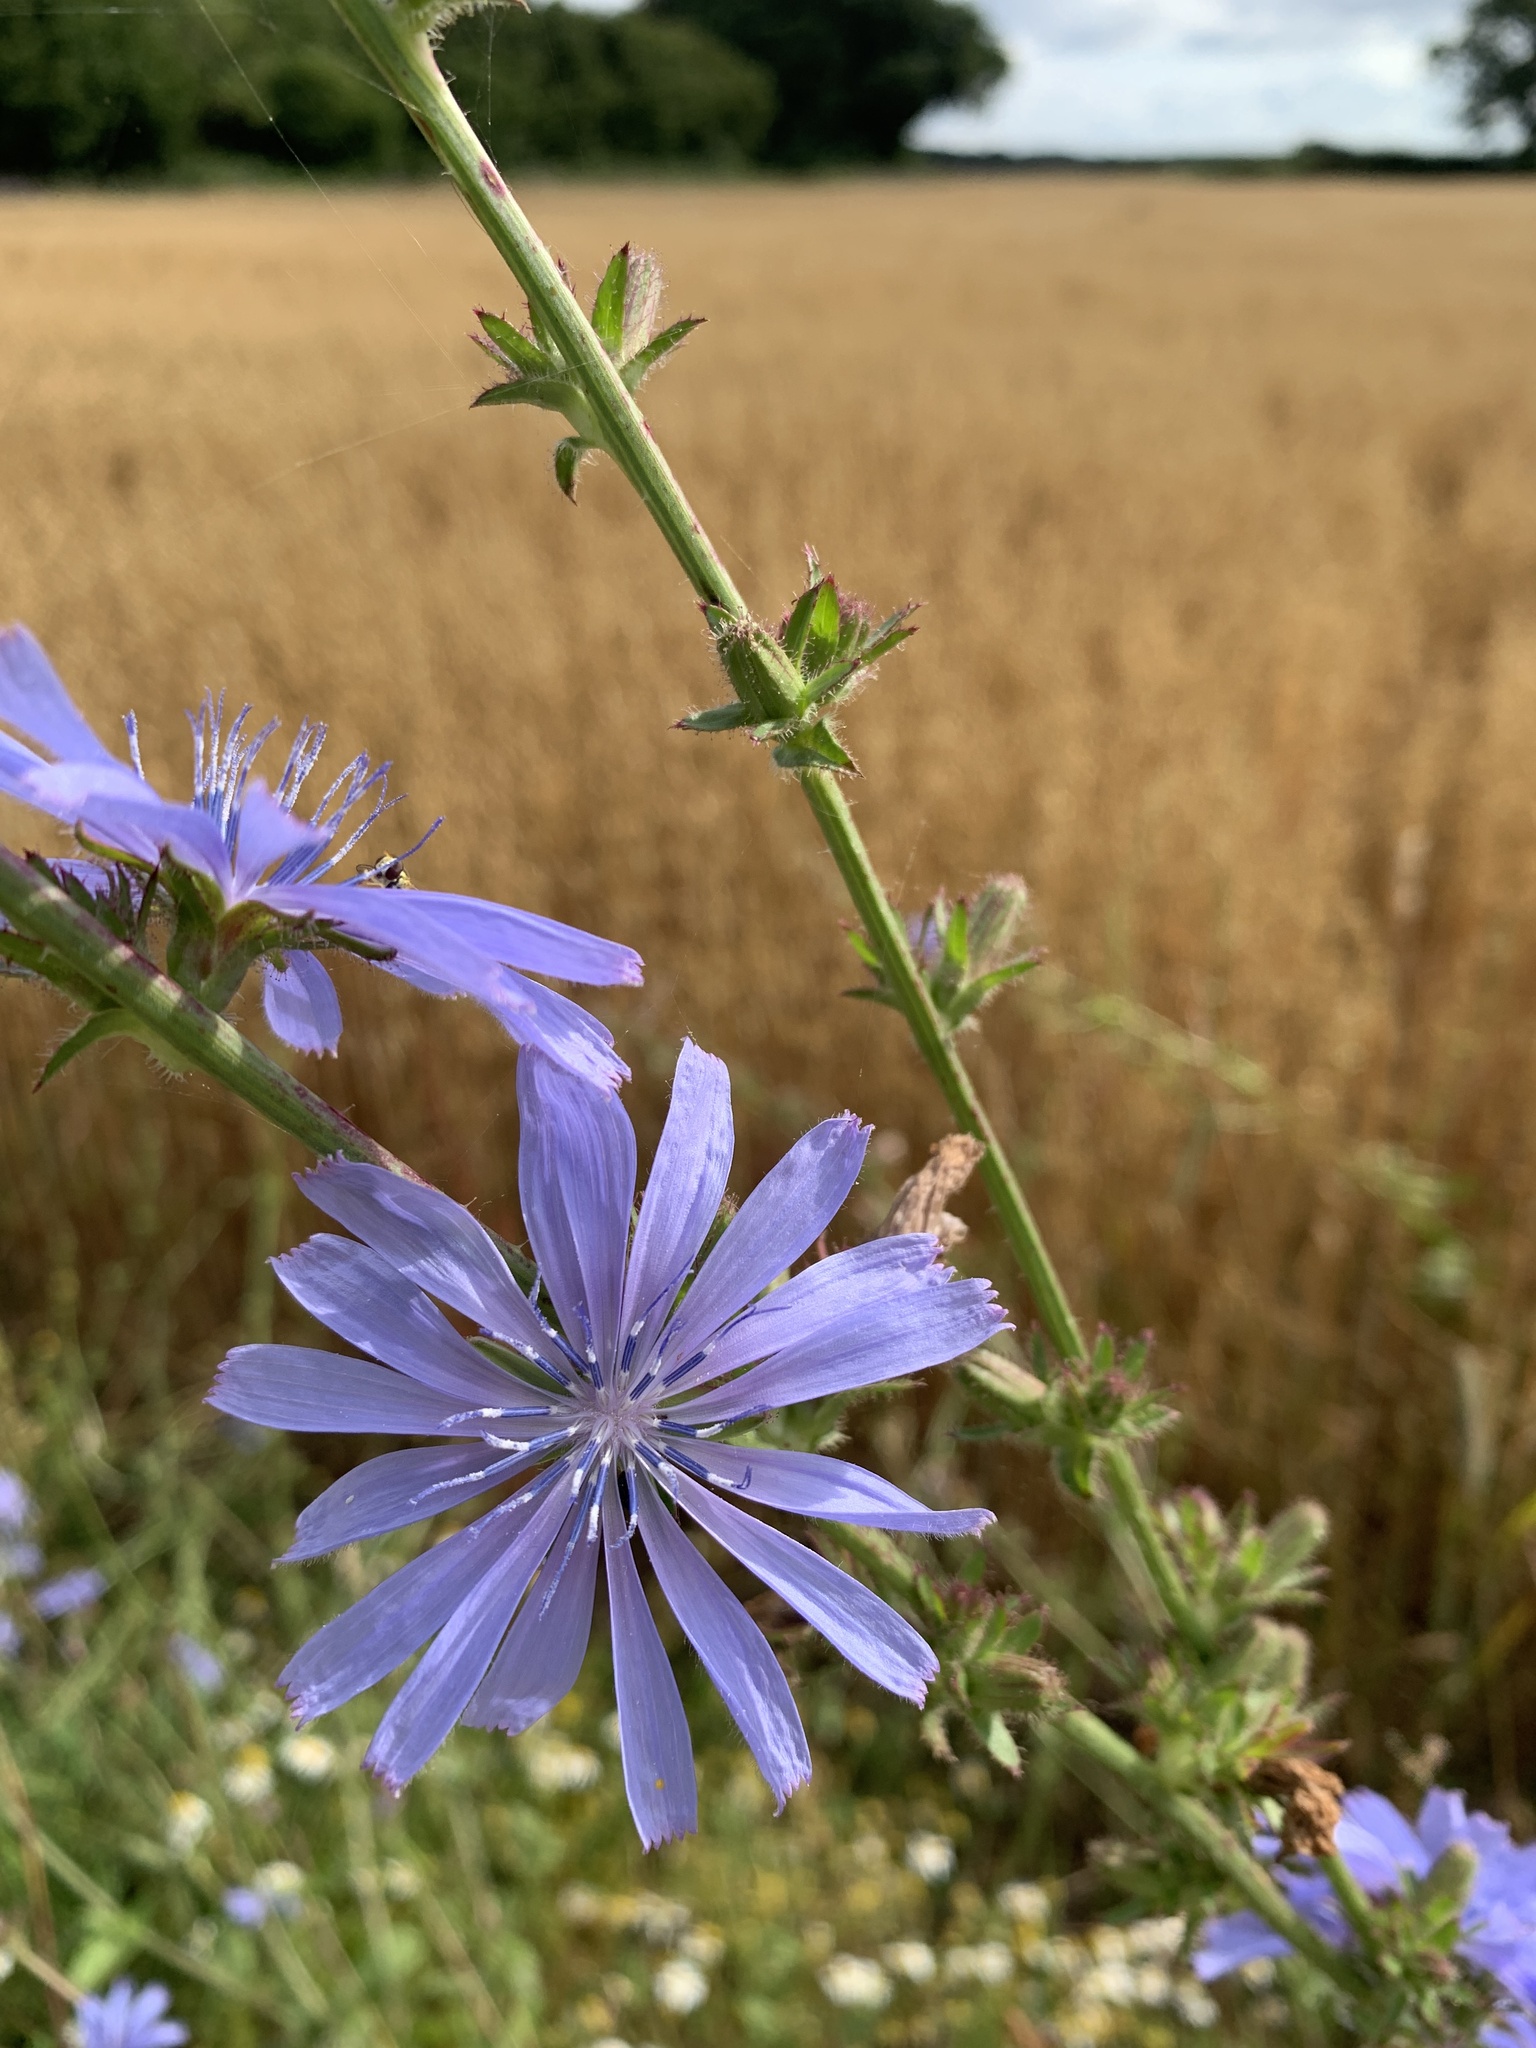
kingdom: Plantae
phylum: Tracheophyta
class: Magnoliopsida
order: Asterales
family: Asteraceae
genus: Cichorium
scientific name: Cichorium intybus
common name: Chicory
